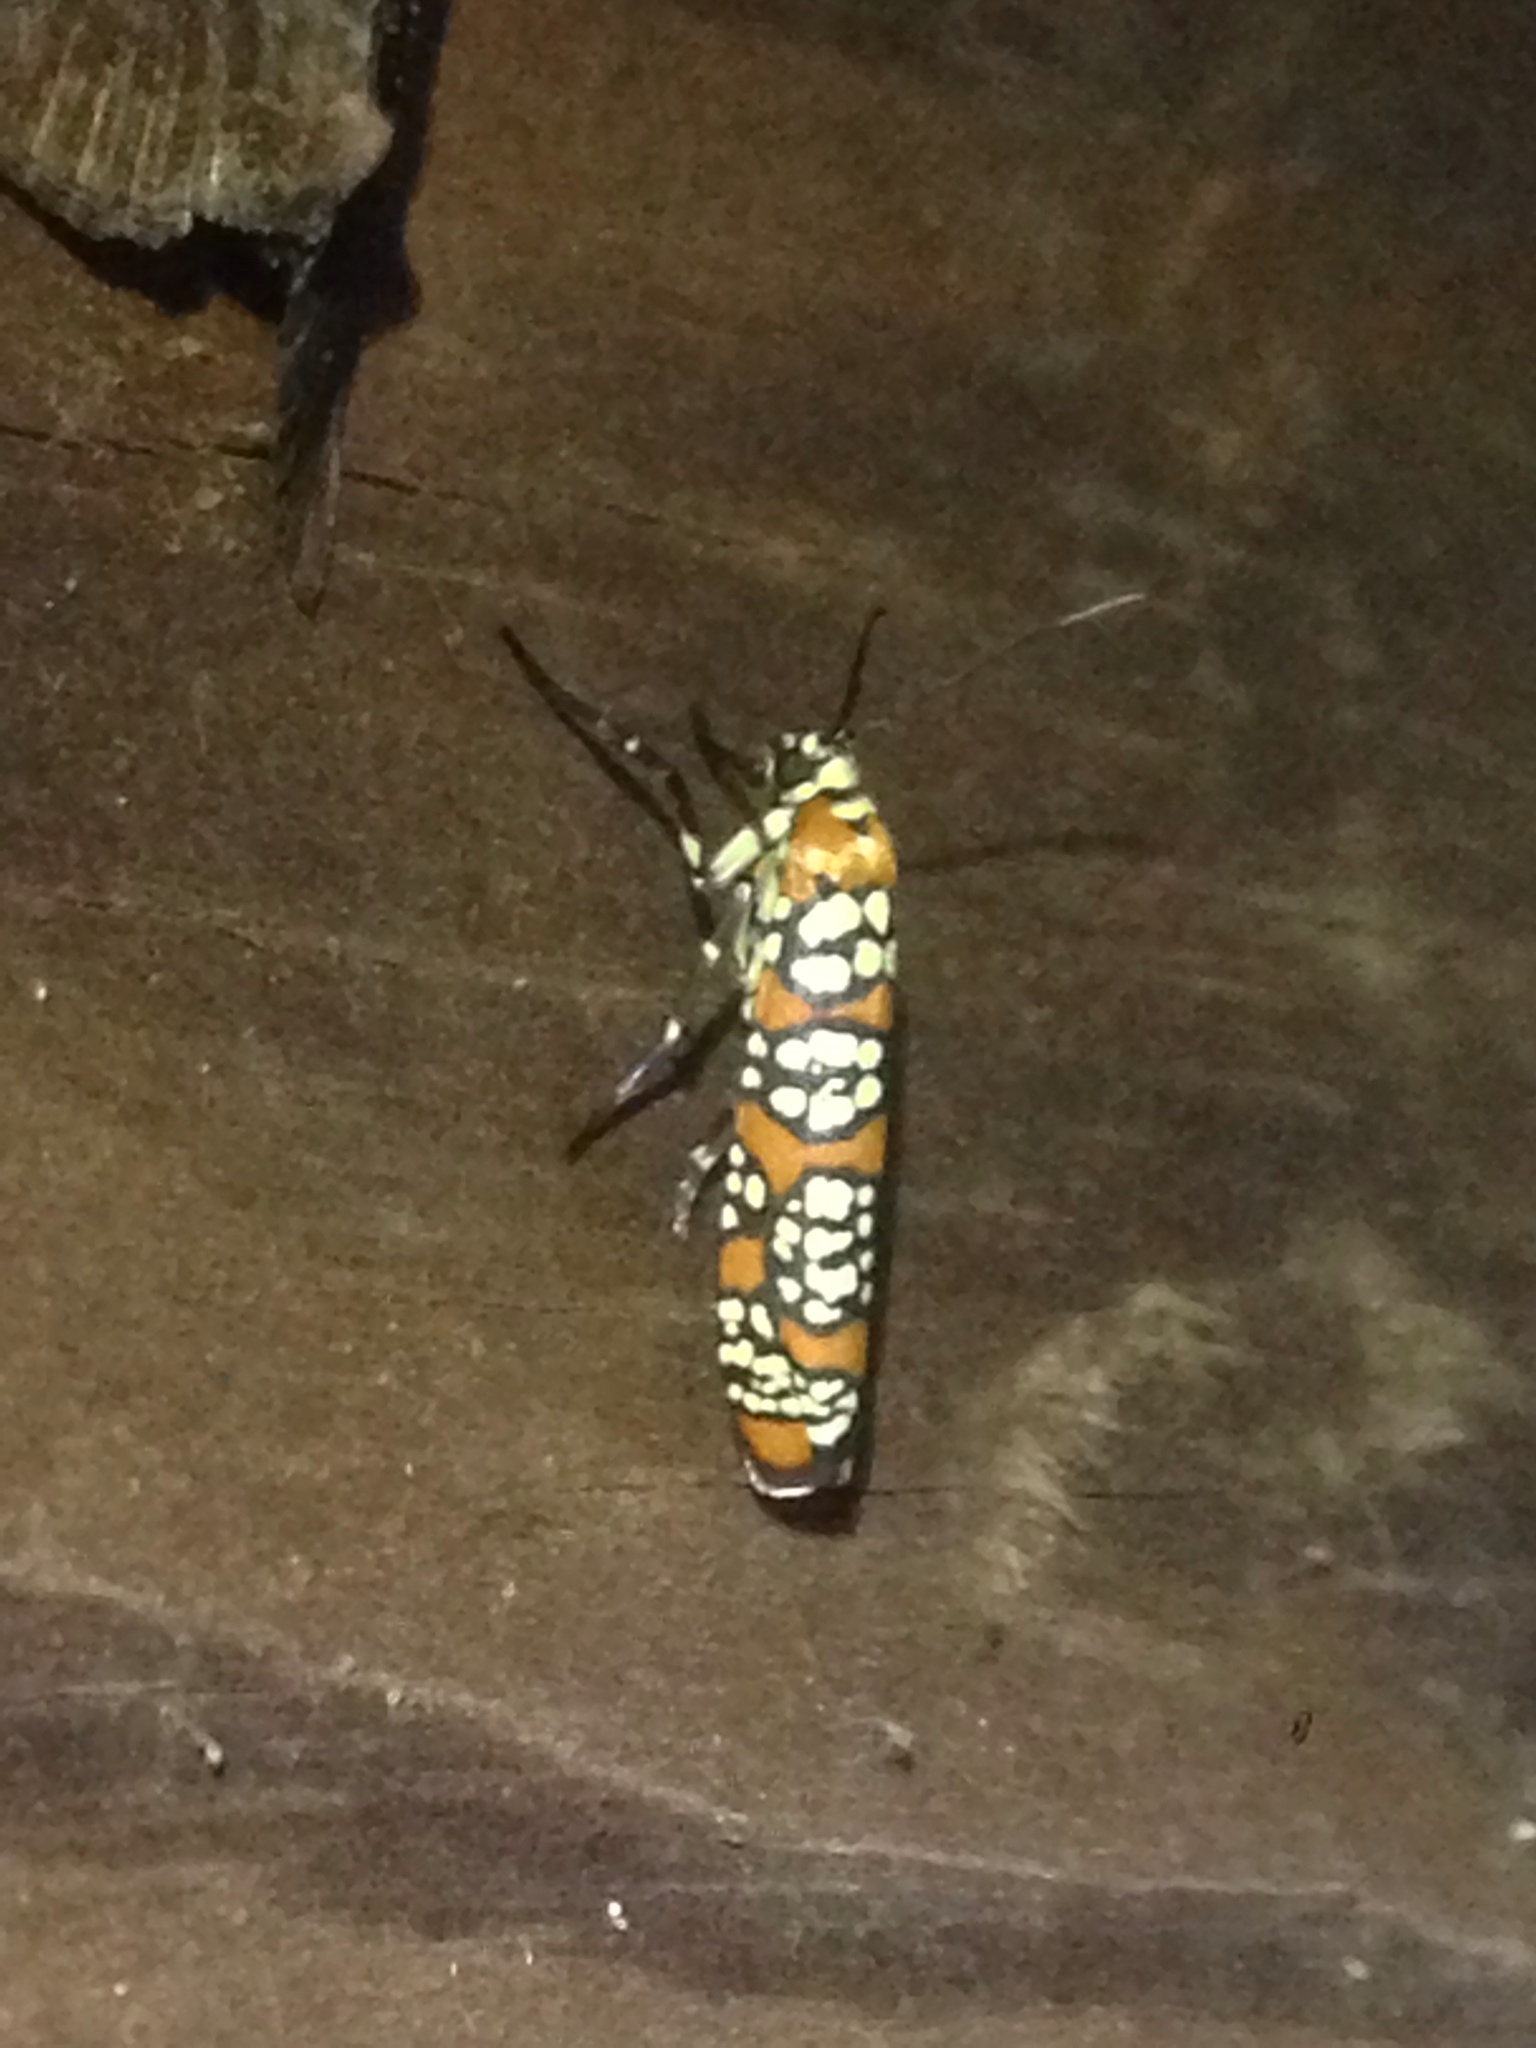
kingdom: Animalia
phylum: Arthropoda
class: Insecta
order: Lepidoptera
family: Attevidae
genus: Atteva
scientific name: Atteva punctella
